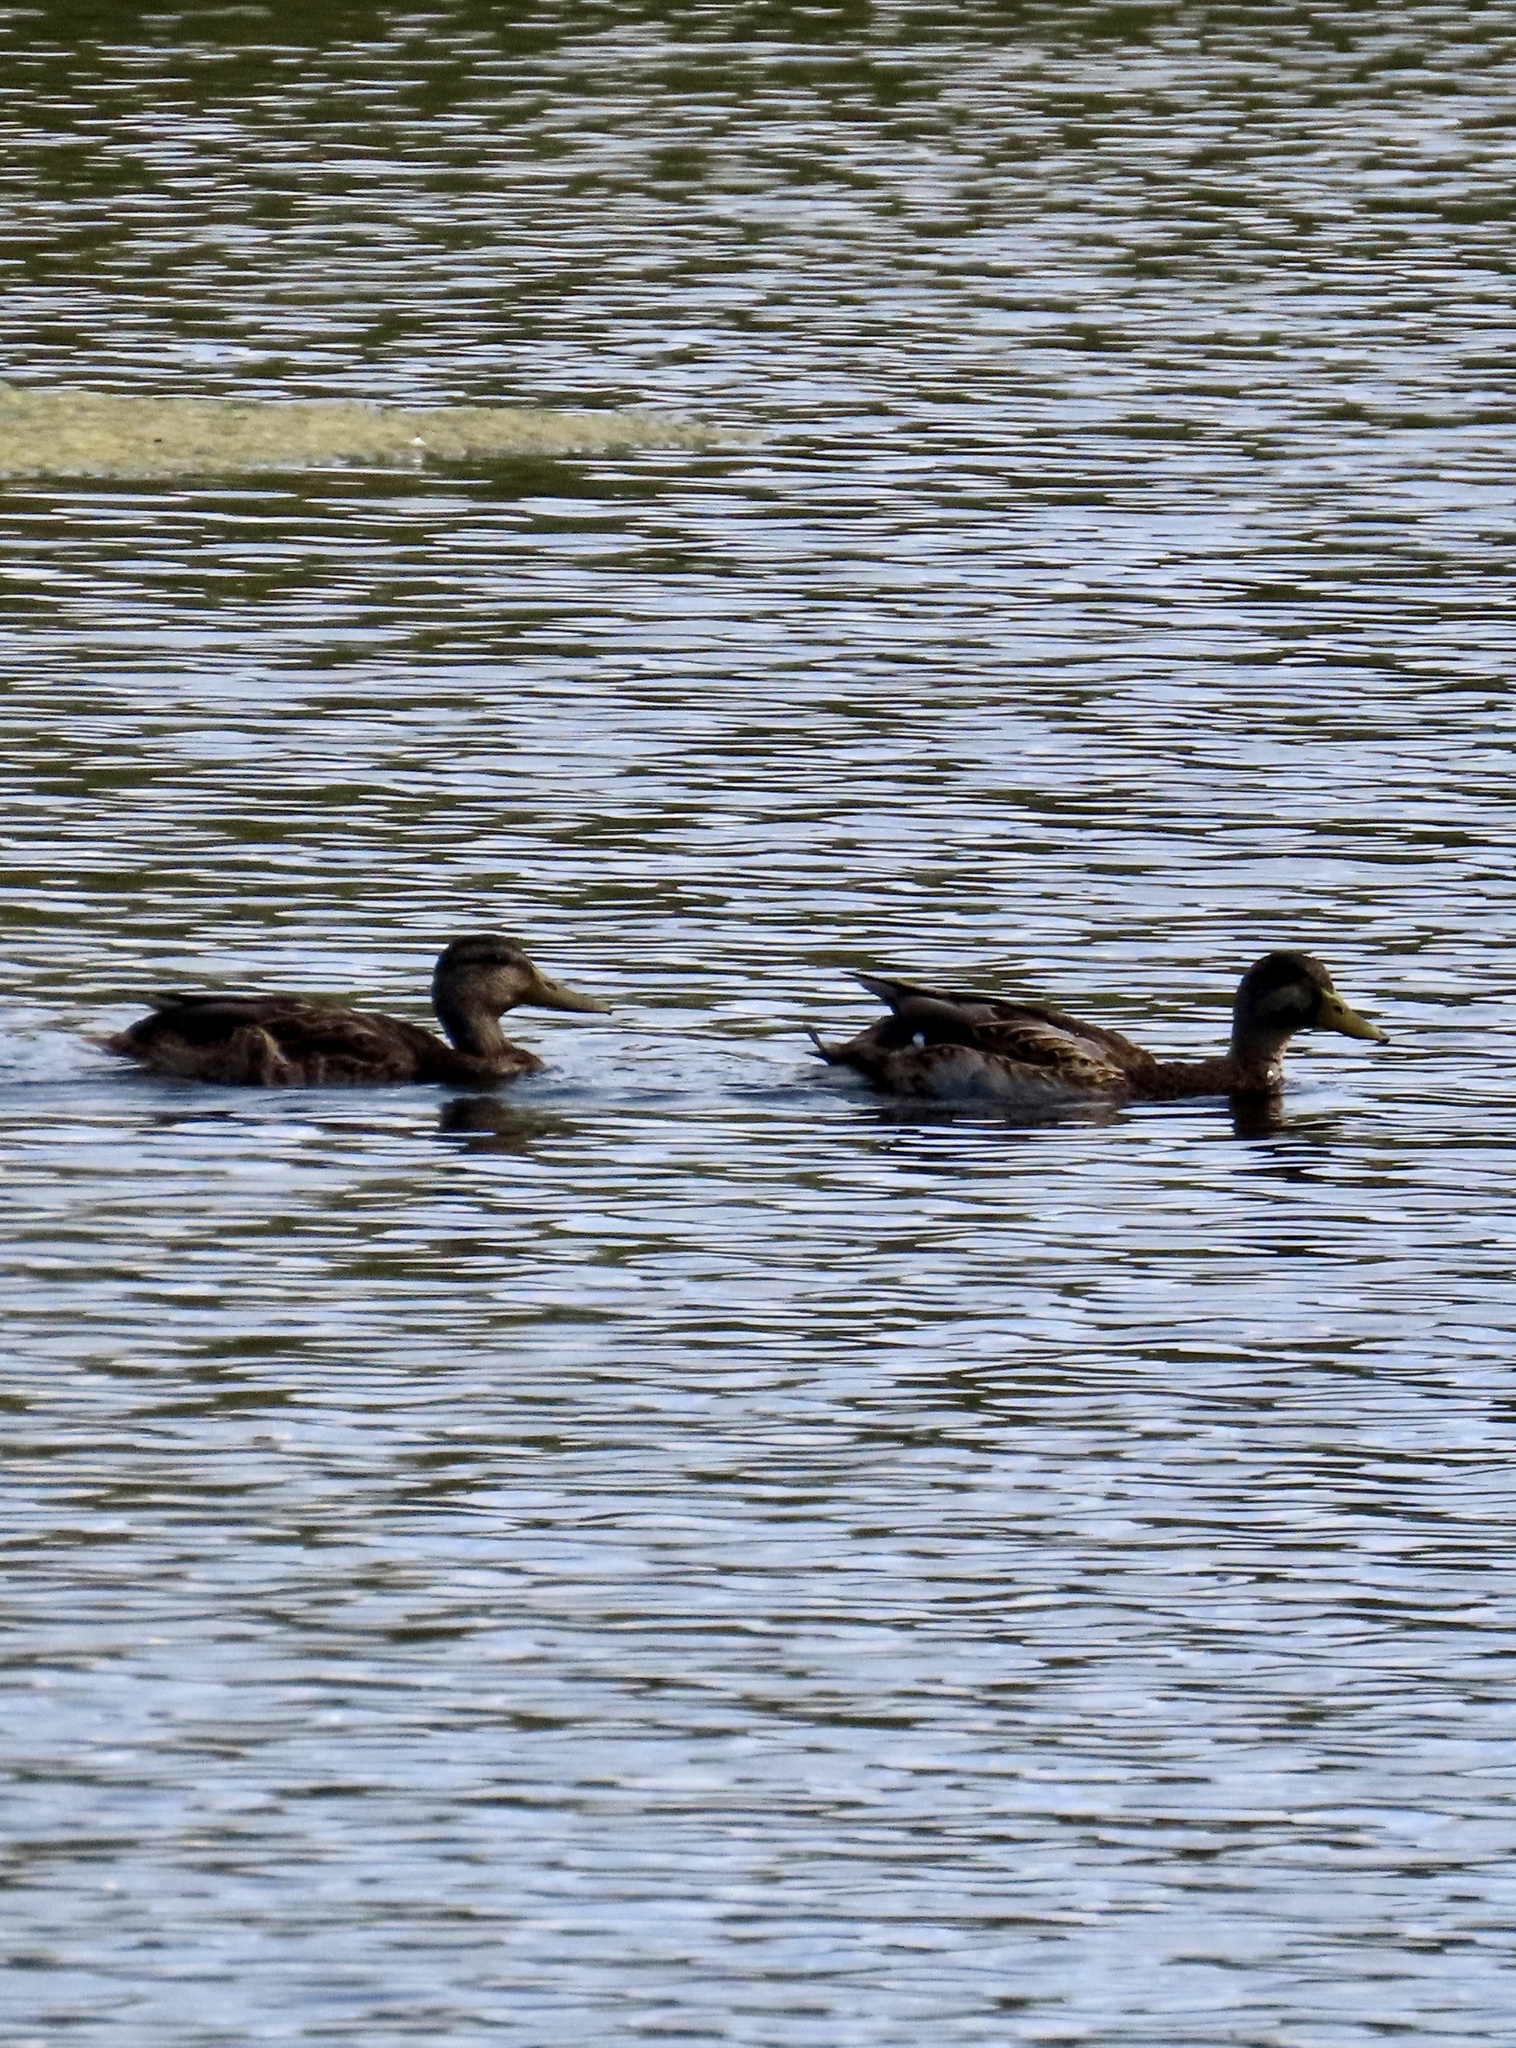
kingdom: Animalia
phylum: Chordata
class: Aves
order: Anseriformes
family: Anatidae
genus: Anas
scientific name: Anas platyrhynchos
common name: Mallard
